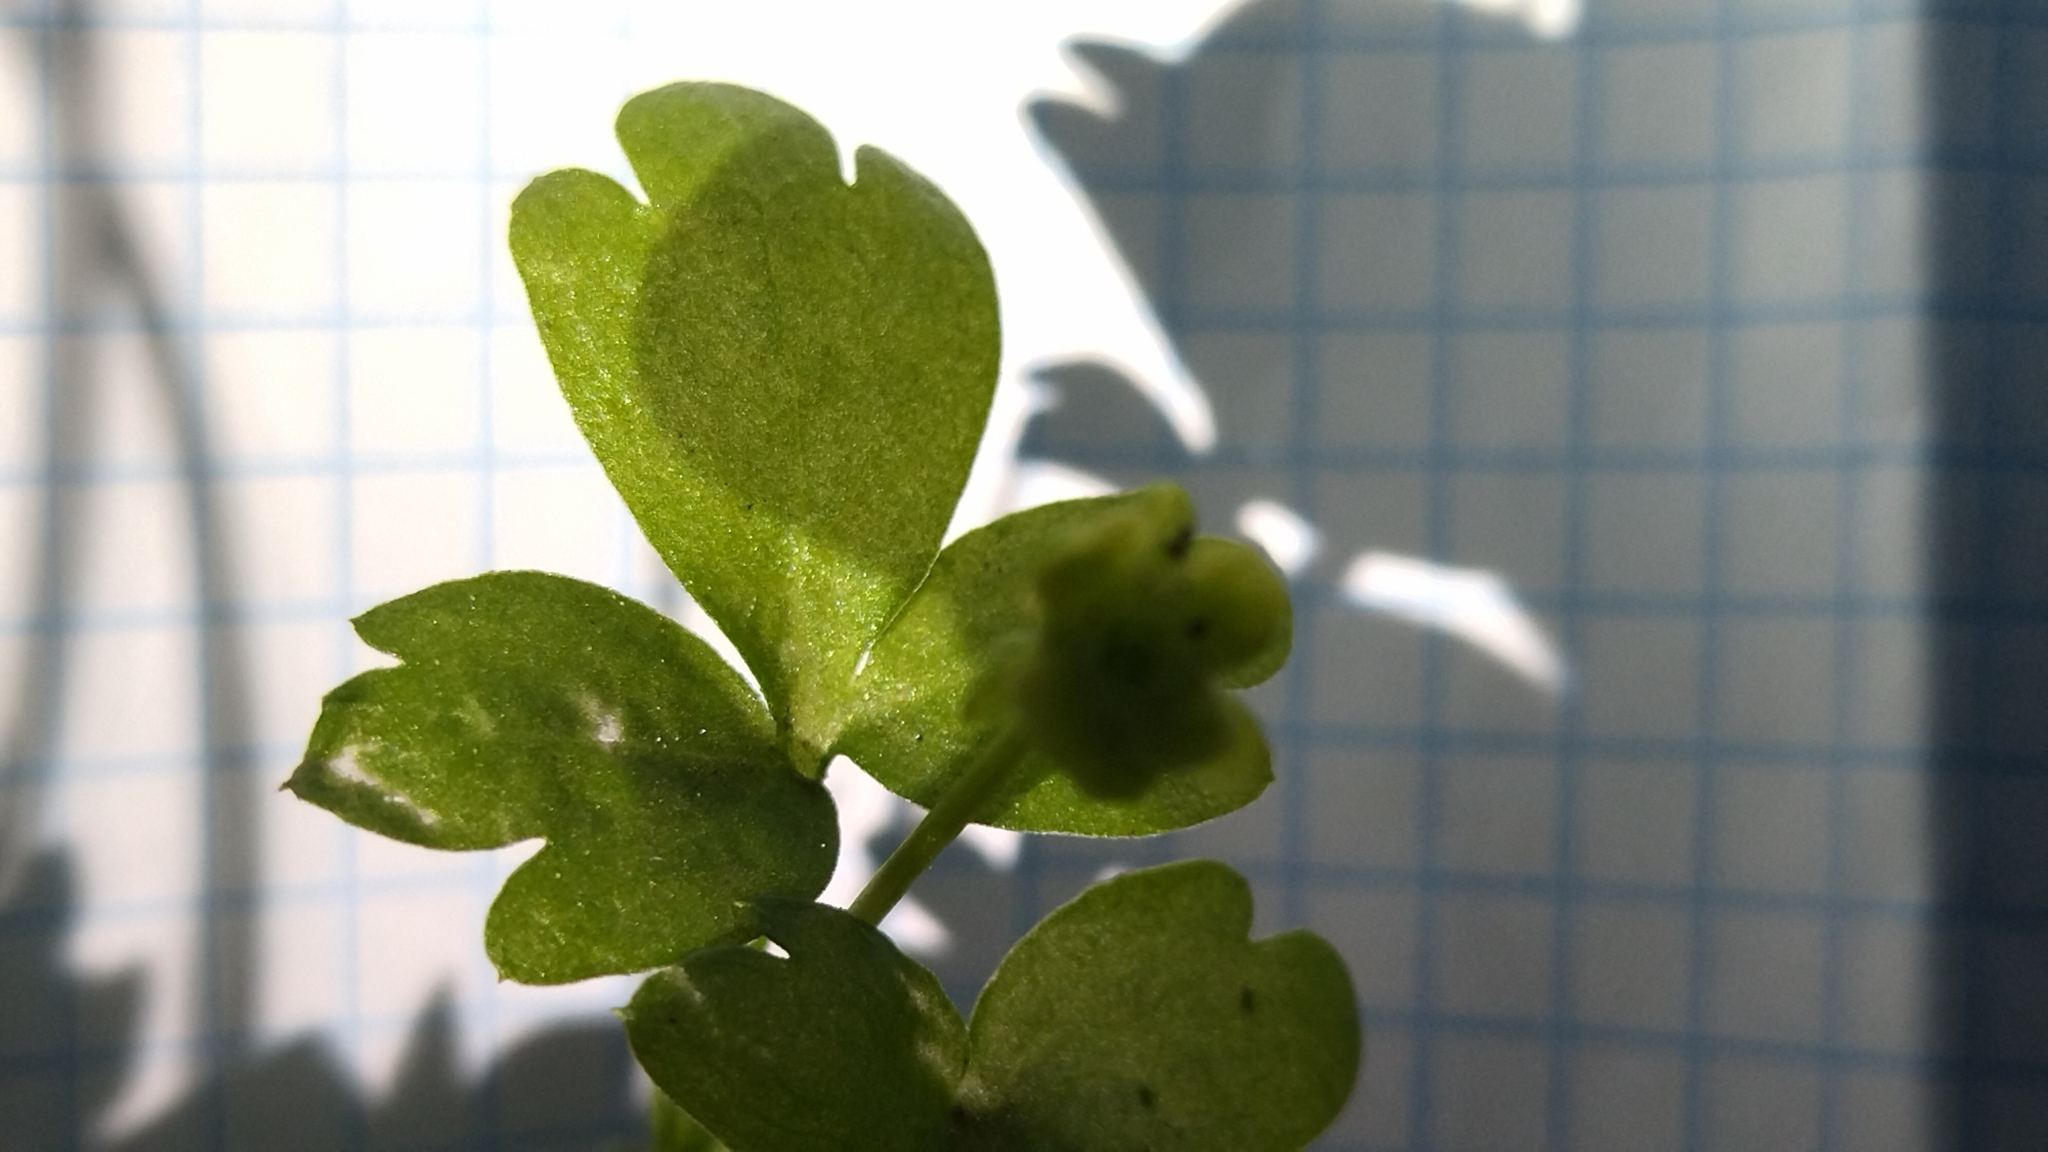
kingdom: Plantae
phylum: Tracheophyta
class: Magnoliopsida
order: Dipsacales
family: Viburnaceae
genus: Adoxa
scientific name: Adoxa moschatellina
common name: Moschatel
